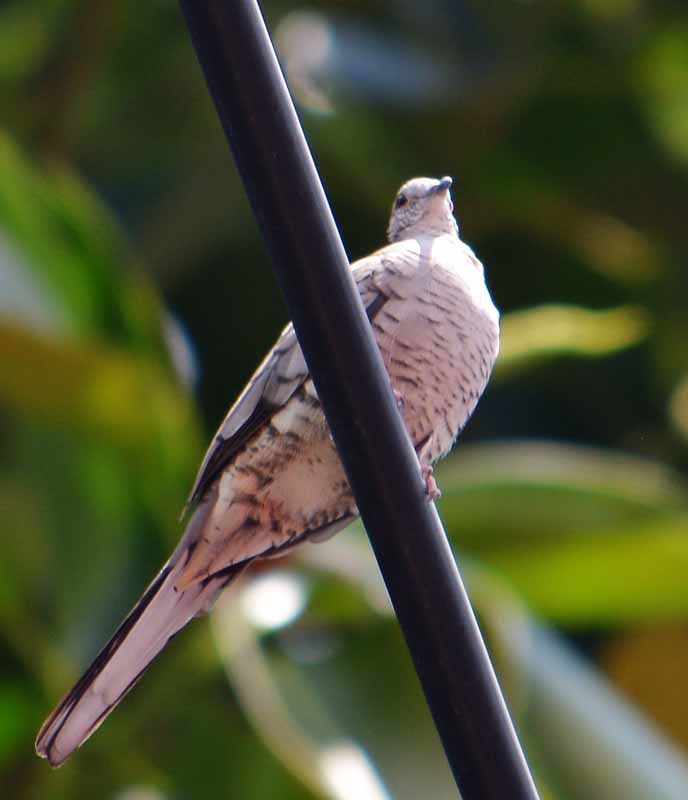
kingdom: Animalia
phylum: Chordata
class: Aves
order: Columbiformes
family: Columbidae
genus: Columbina
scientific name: Columbina inca
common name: Inca dove
